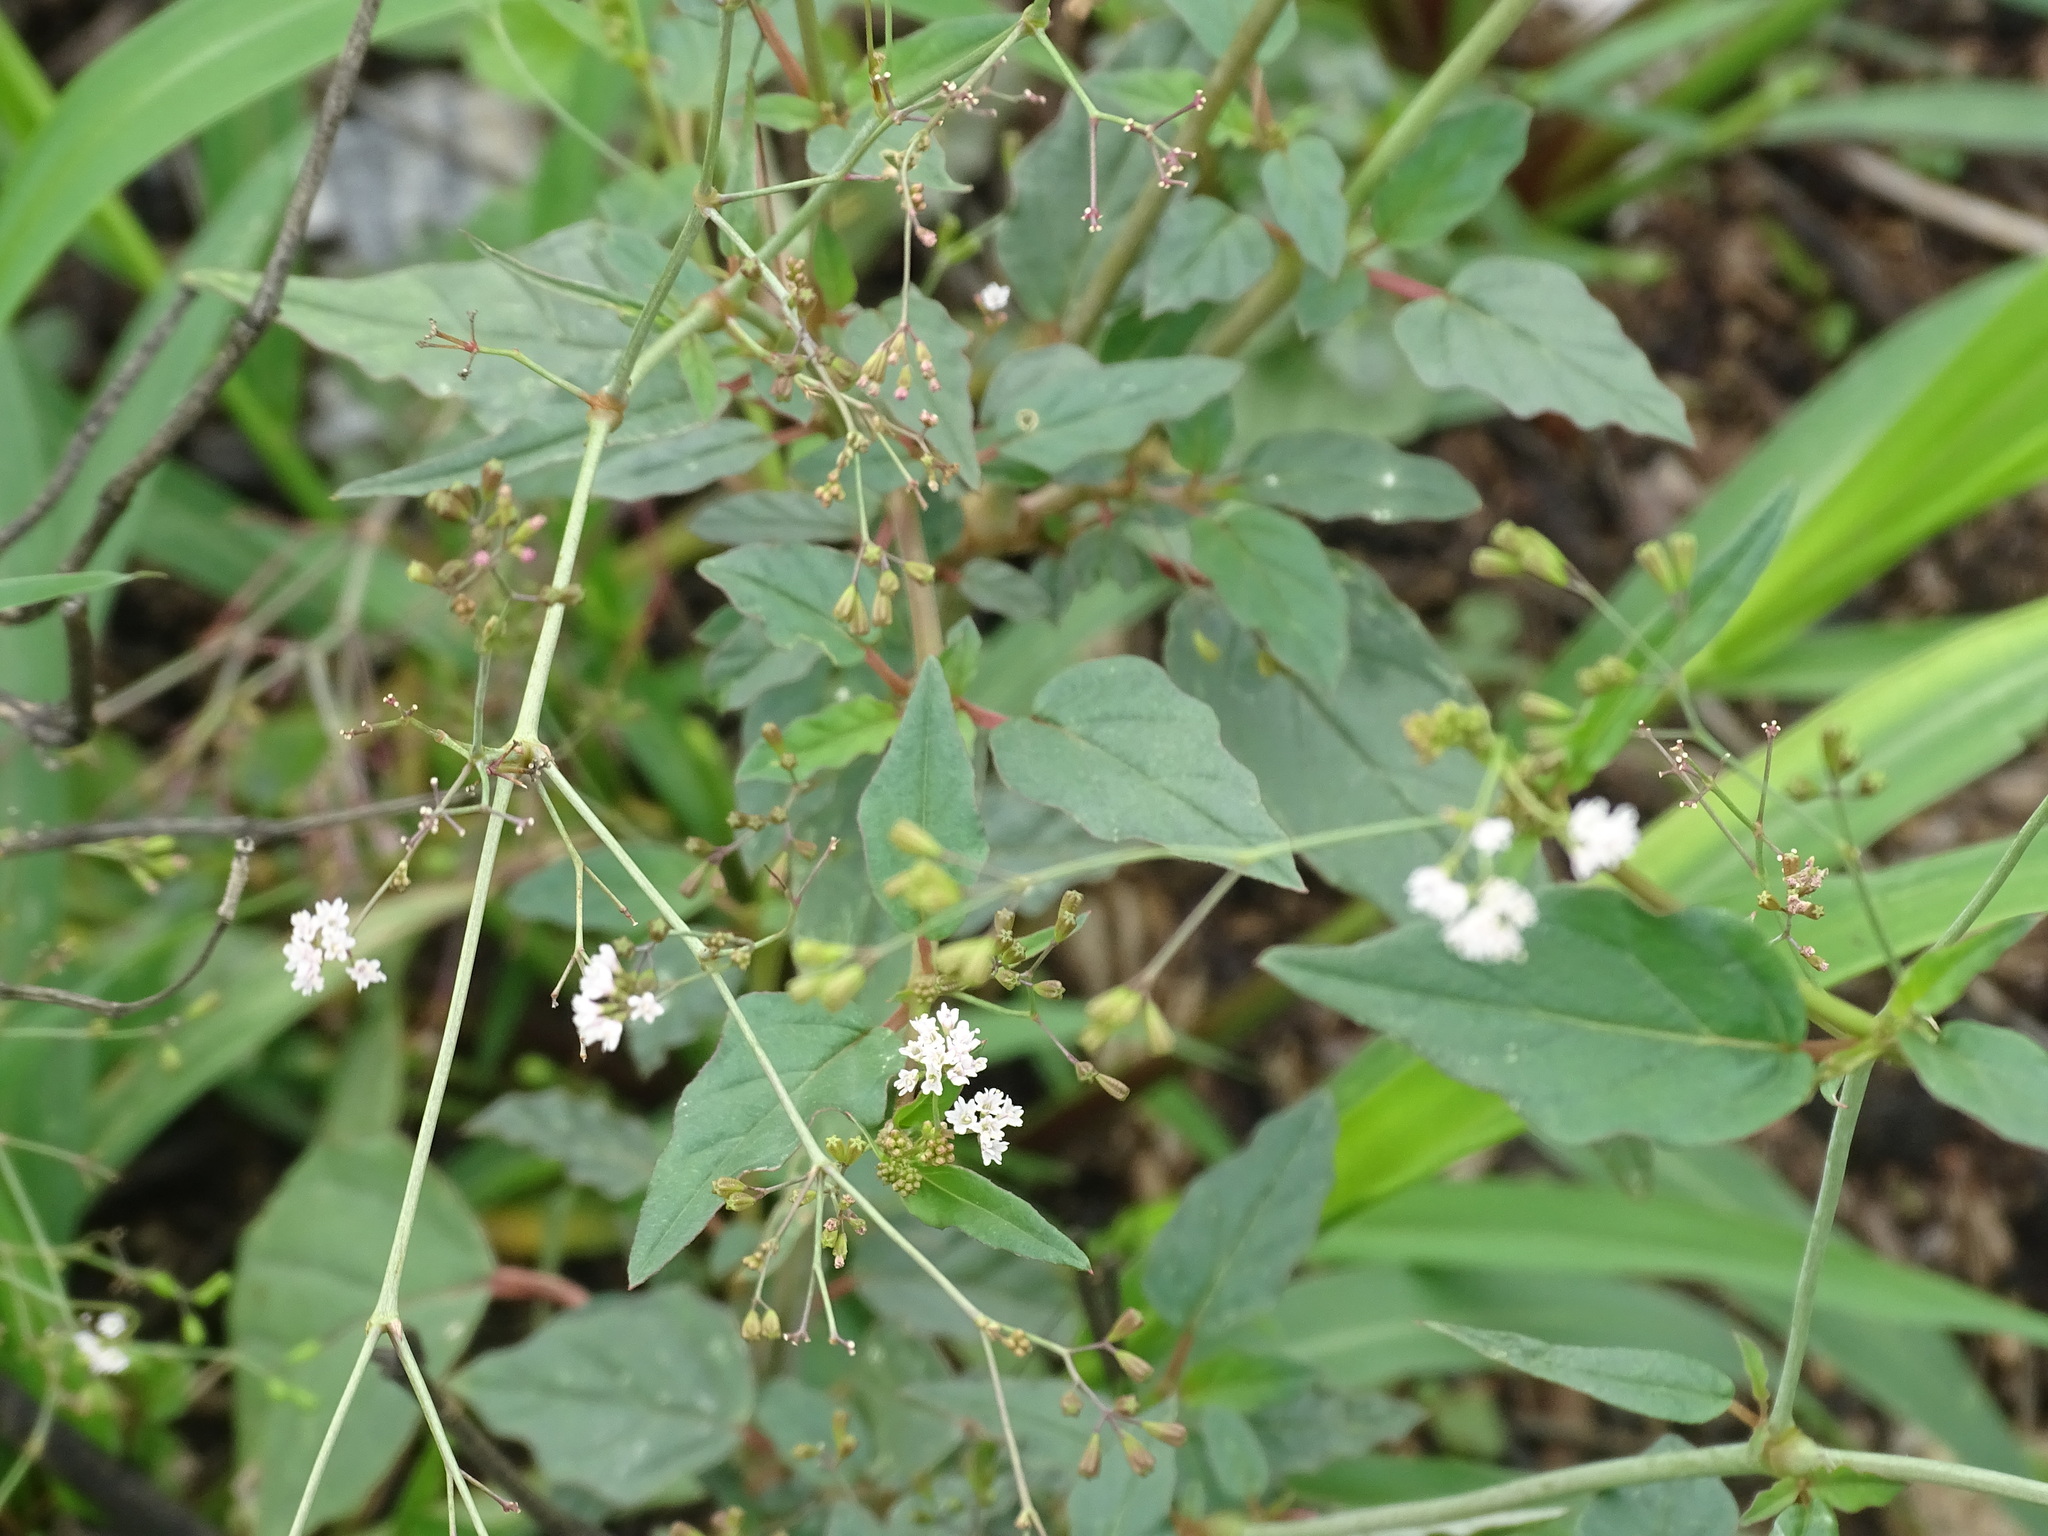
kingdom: Plantae
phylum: Tracheophyta
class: Magnoliopsida
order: Caryophyllales
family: Nyctaginaceae
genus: Boerhavia
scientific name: Boerhavia erecta
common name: Erect spiderling
